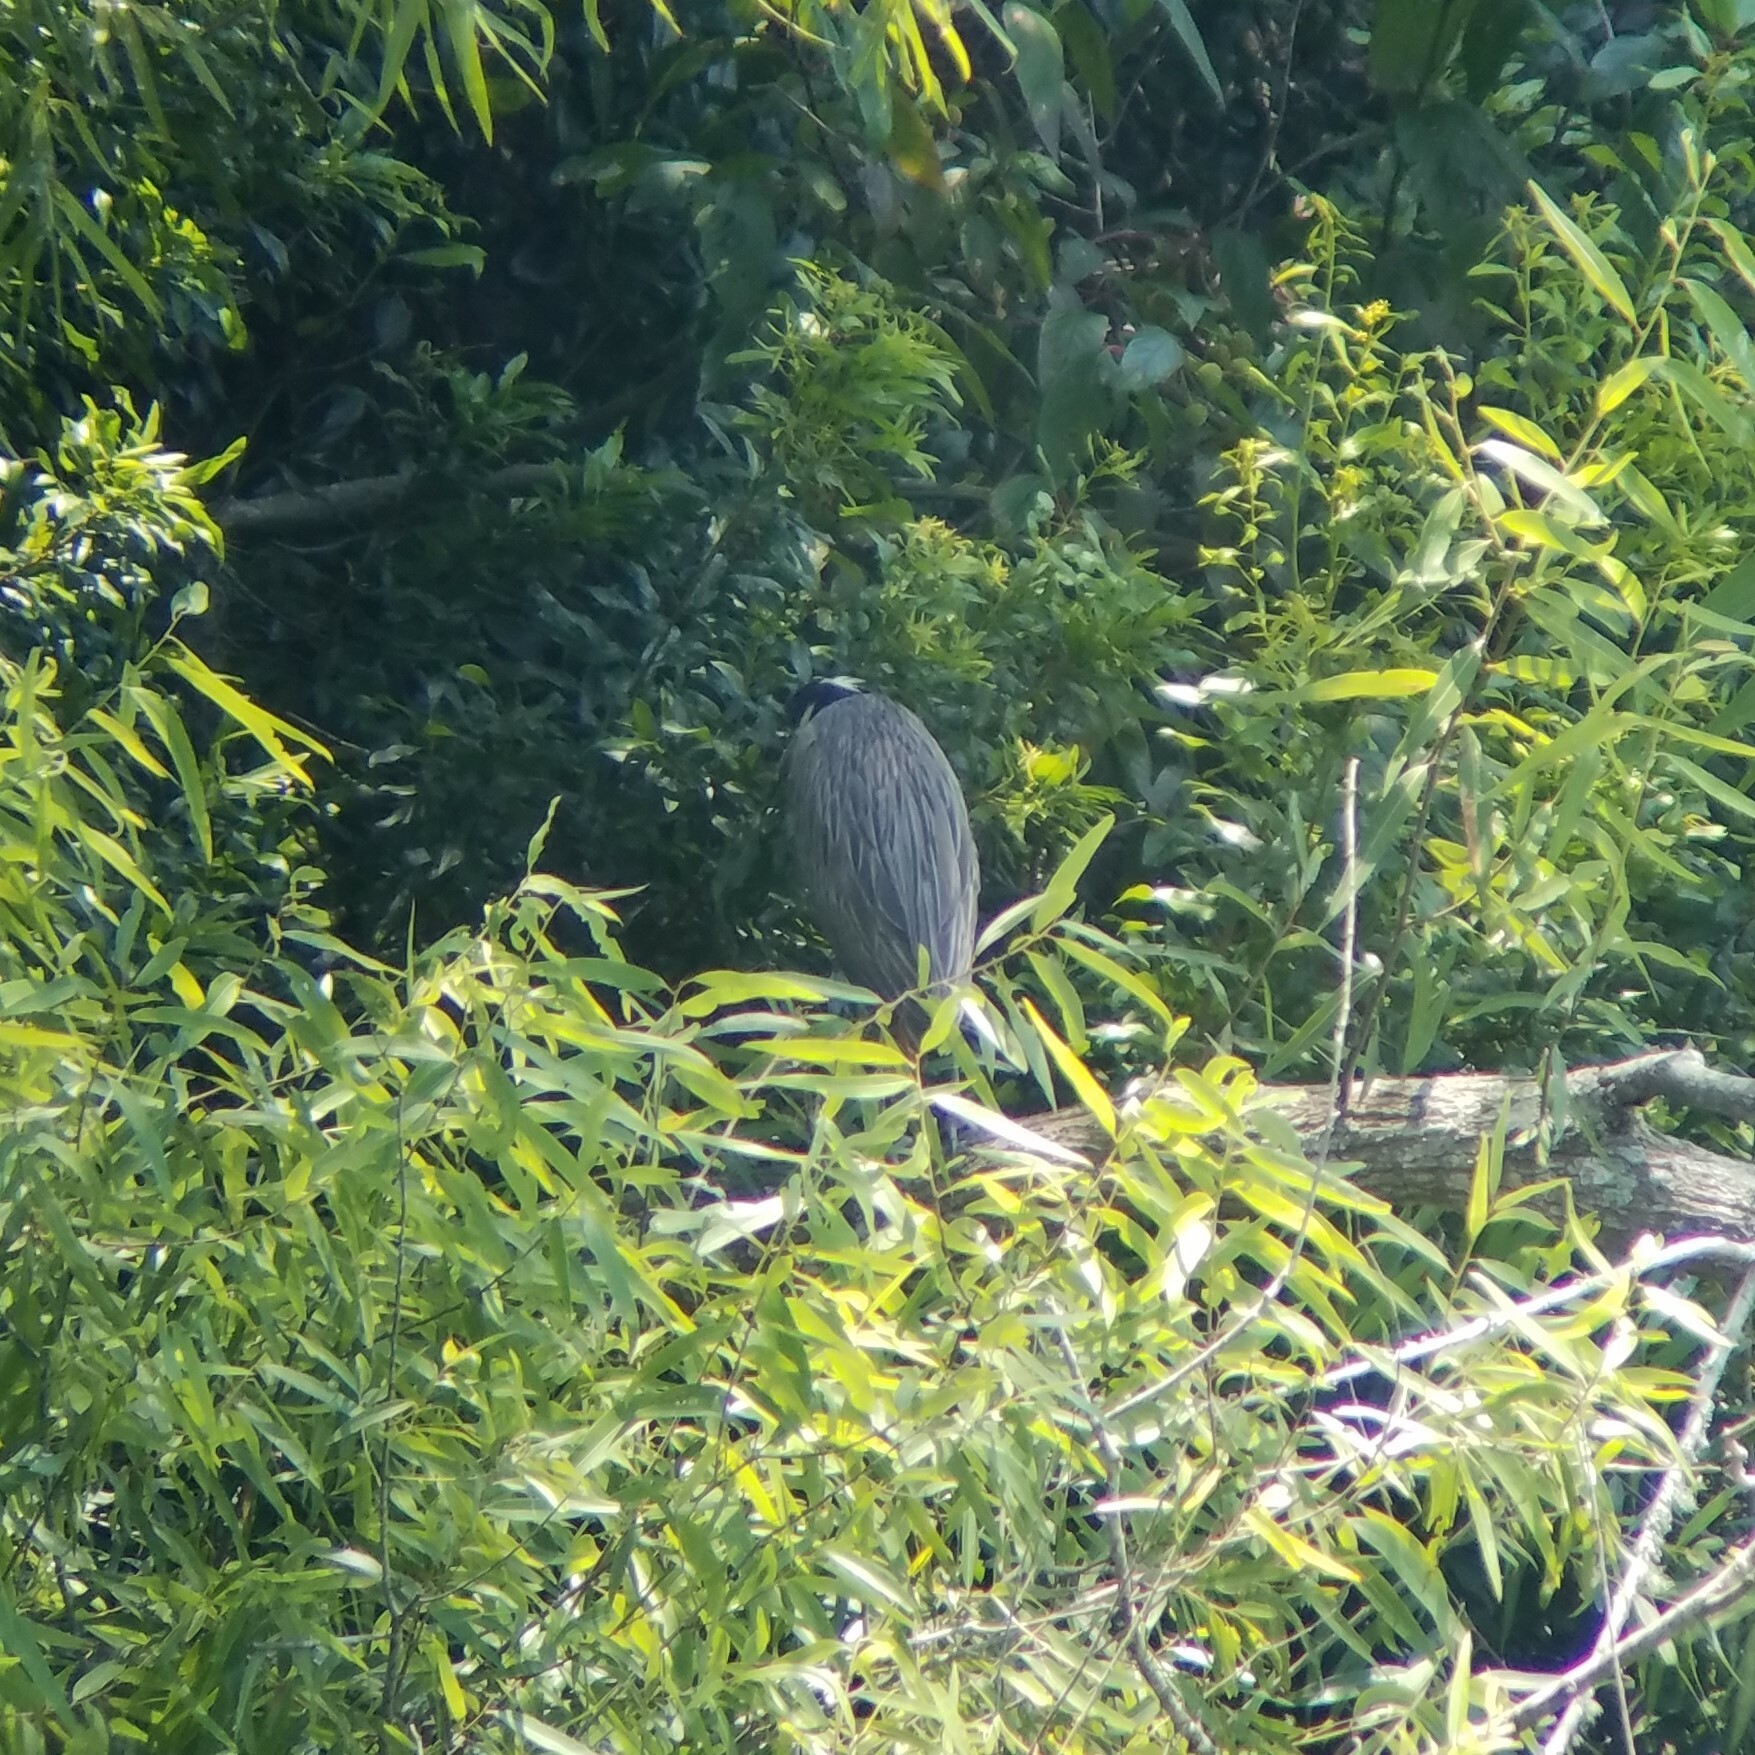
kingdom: Animalia
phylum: Chordata
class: Aves
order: Pelecaniformes
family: Ardeidae
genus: Nyctanassa
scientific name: Nyctanassa violacea
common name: Yellow-crowned night heron
